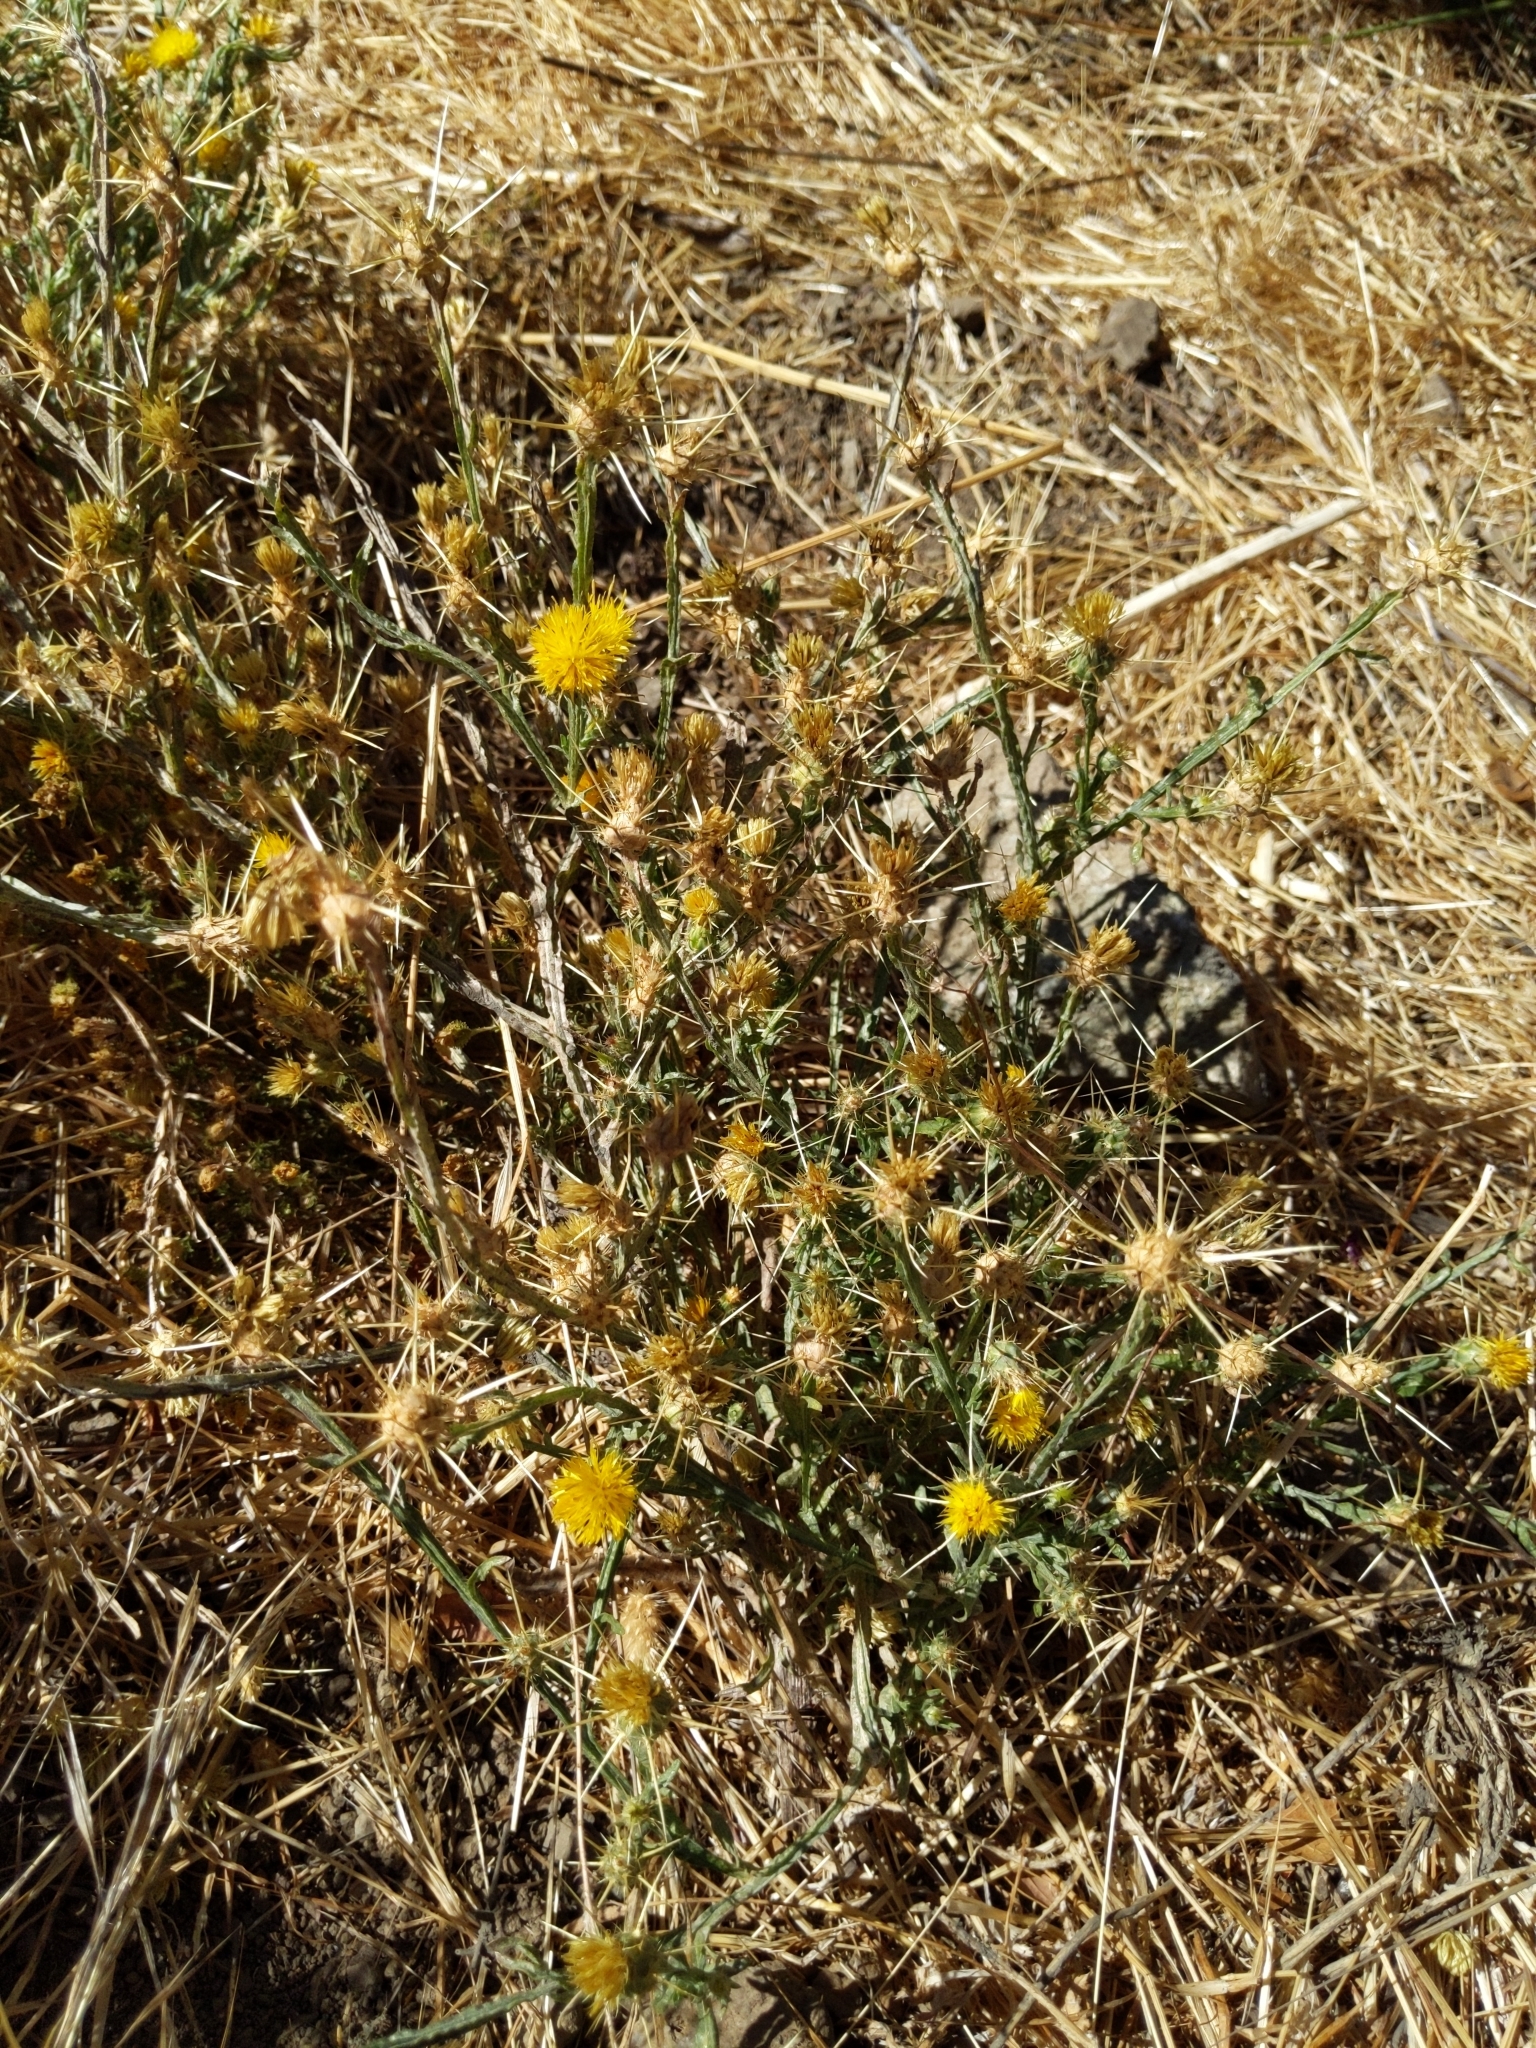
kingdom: Plantae
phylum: Tracheophyta
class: Magnoliopsida
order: Asterales
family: Asteraceae
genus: Centaurea
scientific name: Centaurea solstitialis
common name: Yellow star-thistle
